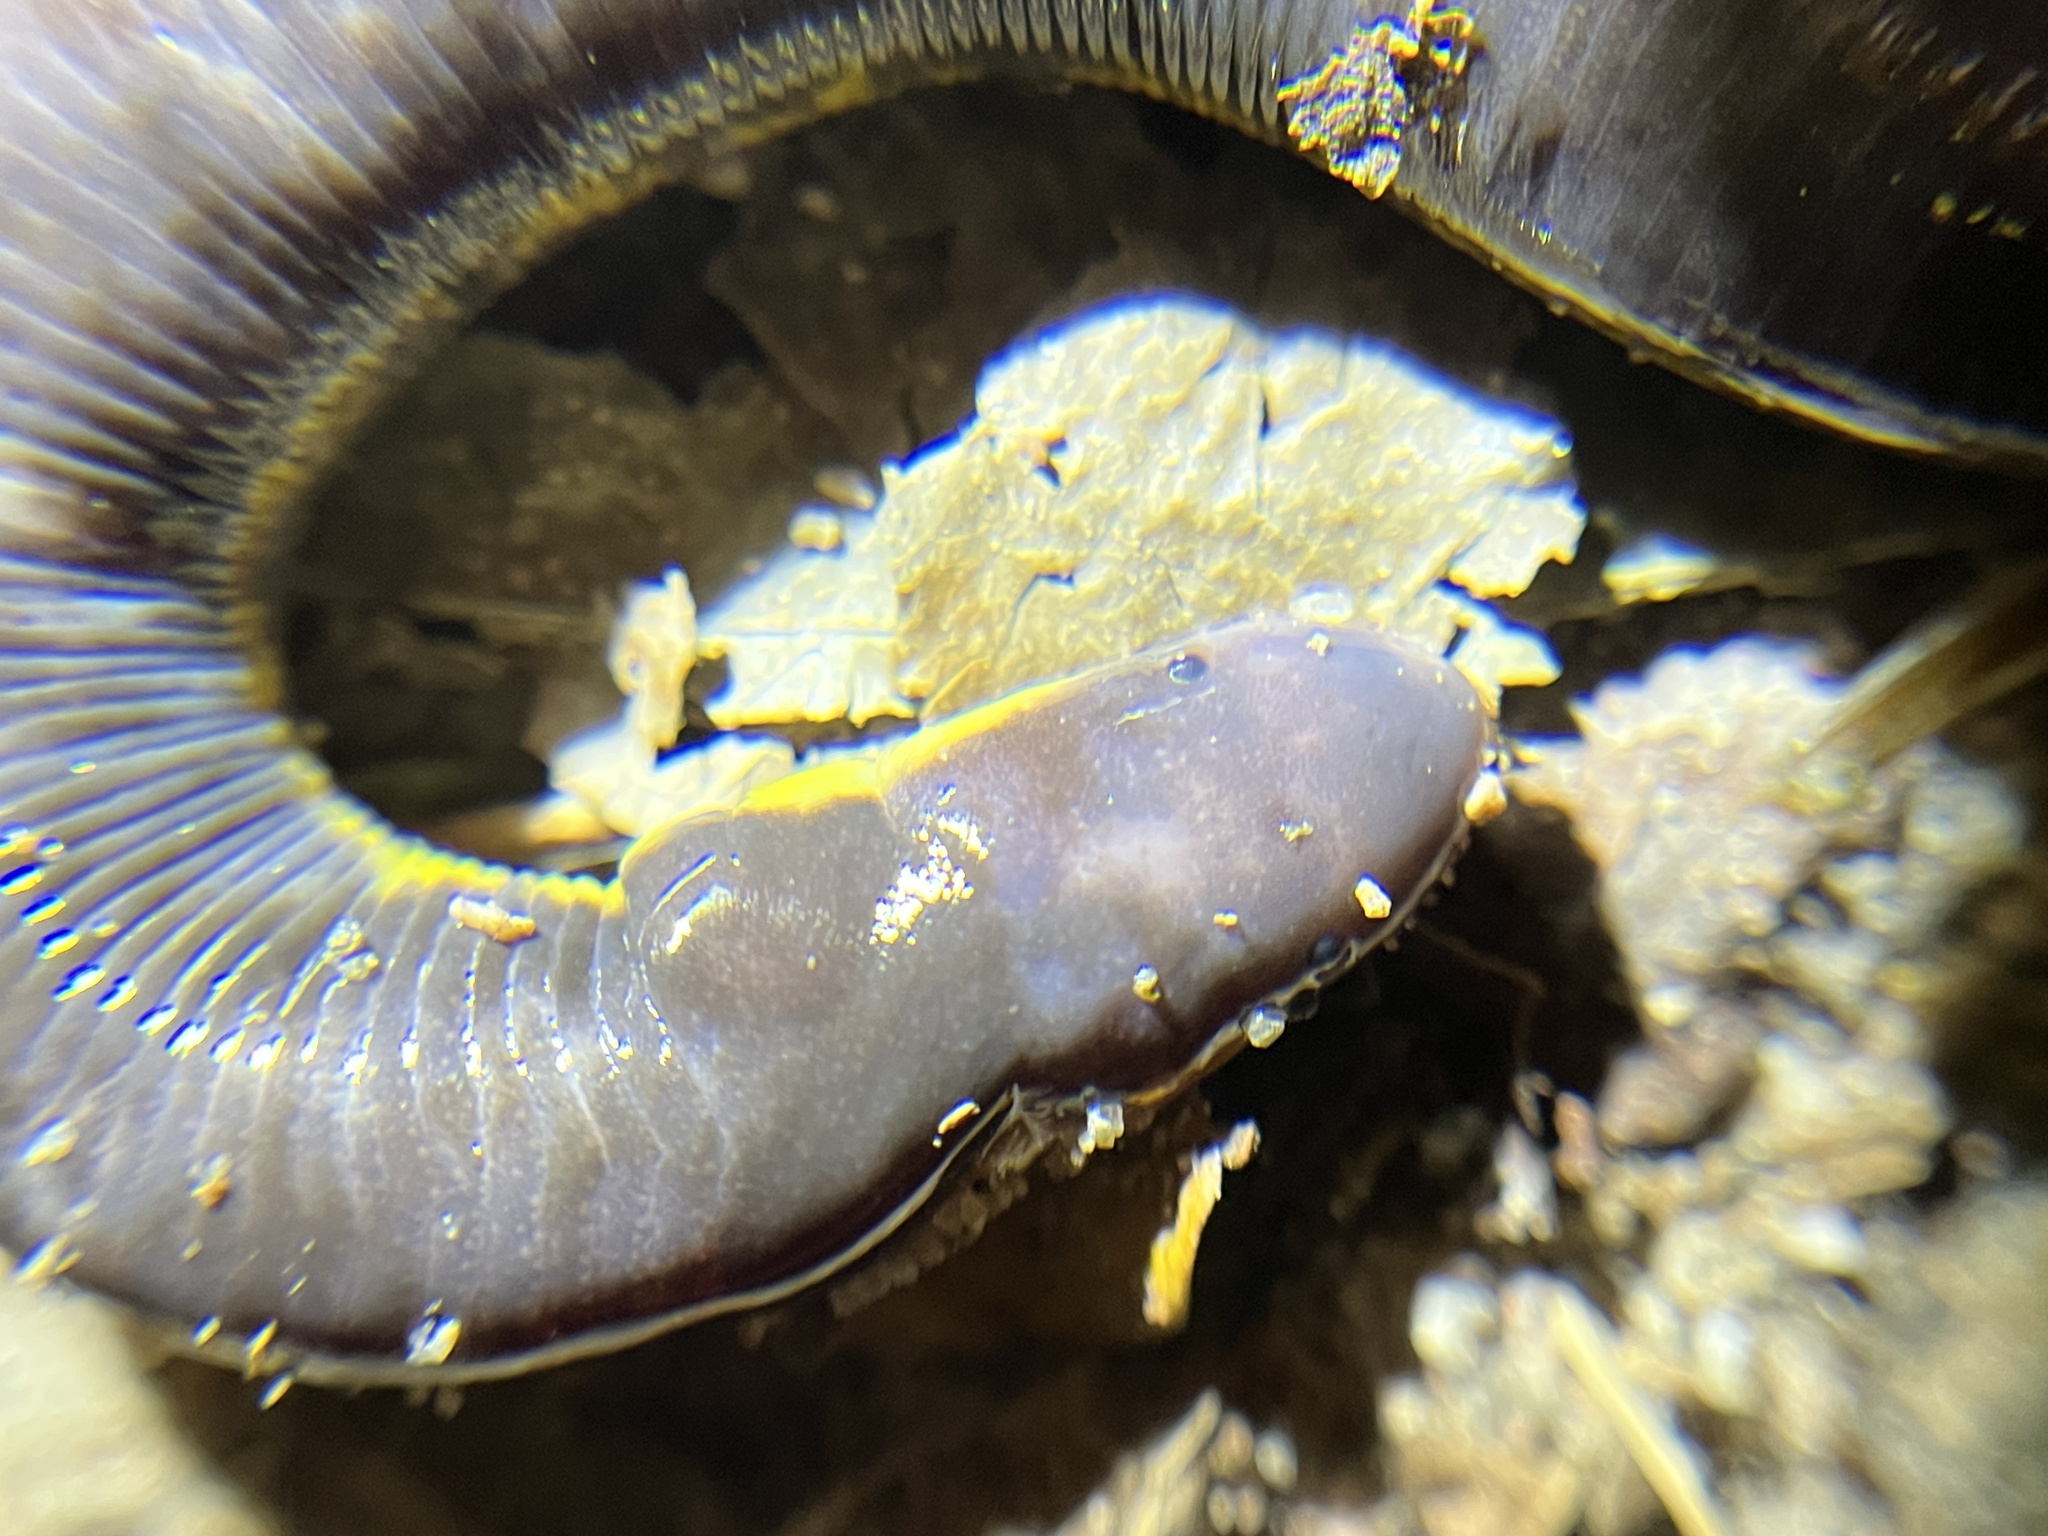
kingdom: Animalia
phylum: Chordata
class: Amphibia
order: Gymnophiona
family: Ichthyophiidae
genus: Ichthyophis
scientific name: Ichthyophis kohtaoensis
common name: Koa tao island caecilian
